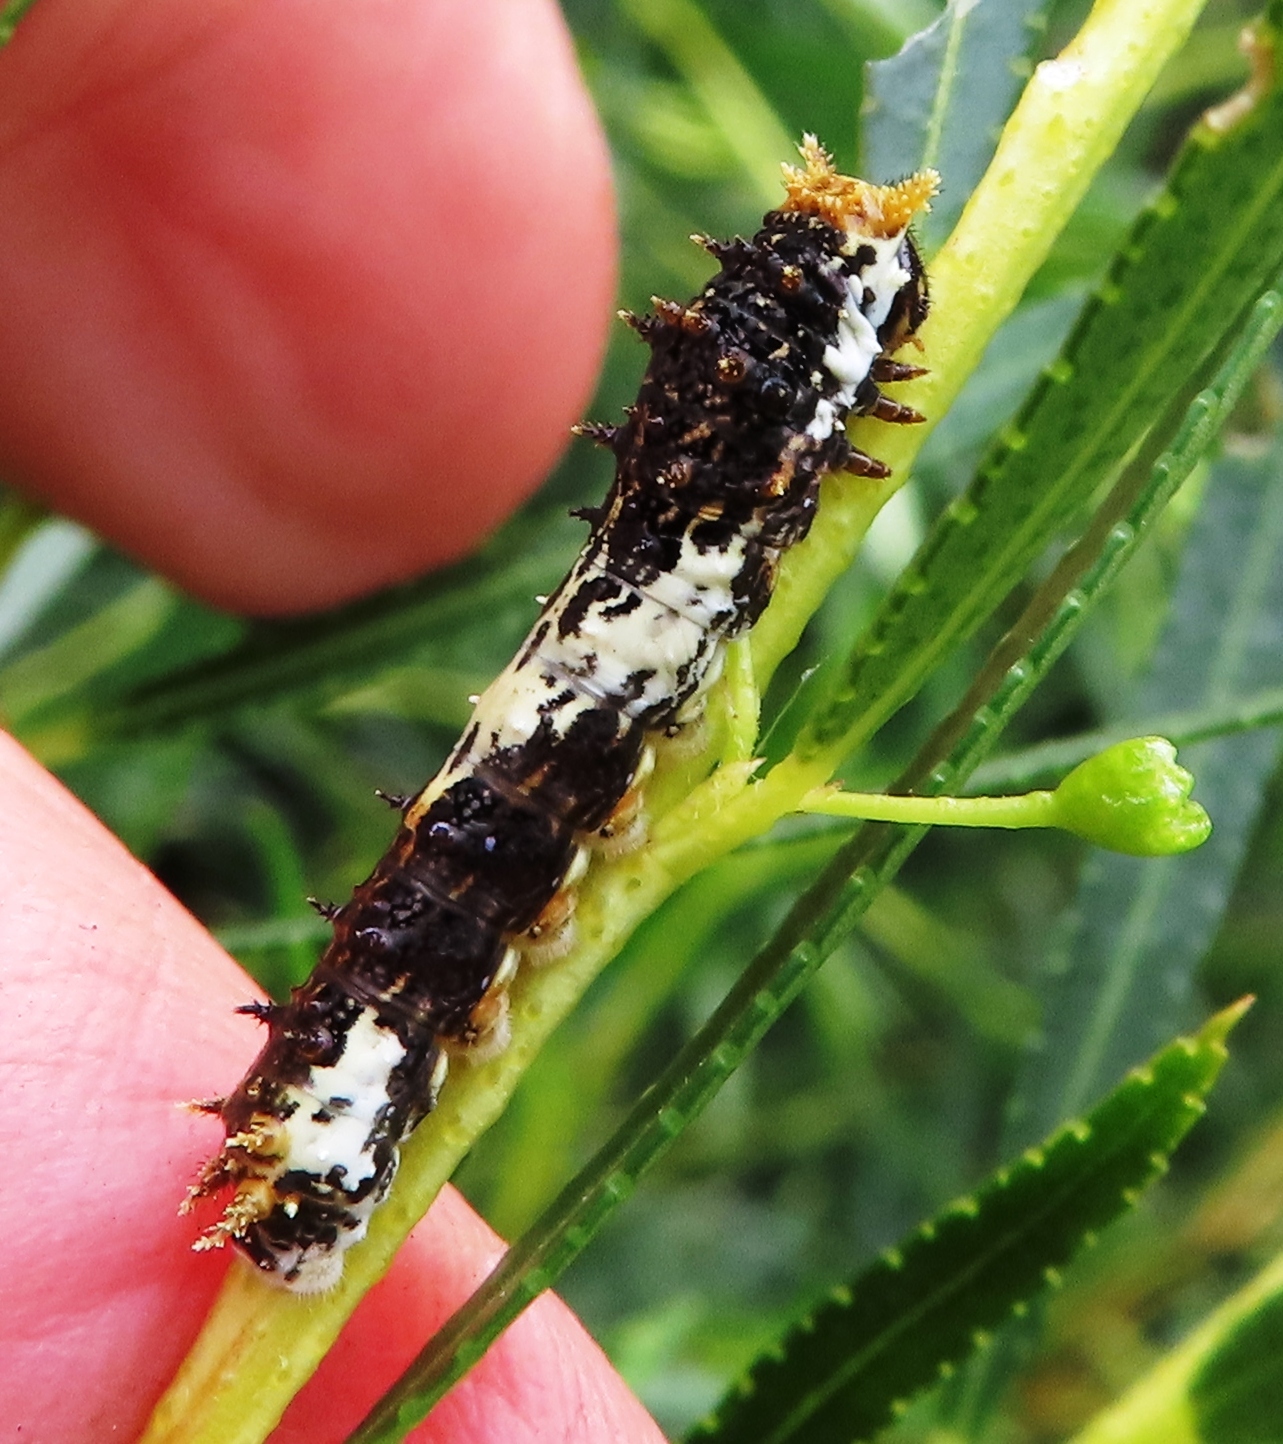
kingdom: Animalia
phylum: Arthropoda
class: Insecta
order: Lepidoptera
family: Papilionidae
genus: Papilio
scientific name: Papilio demodocus
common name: Christmas butterfly
